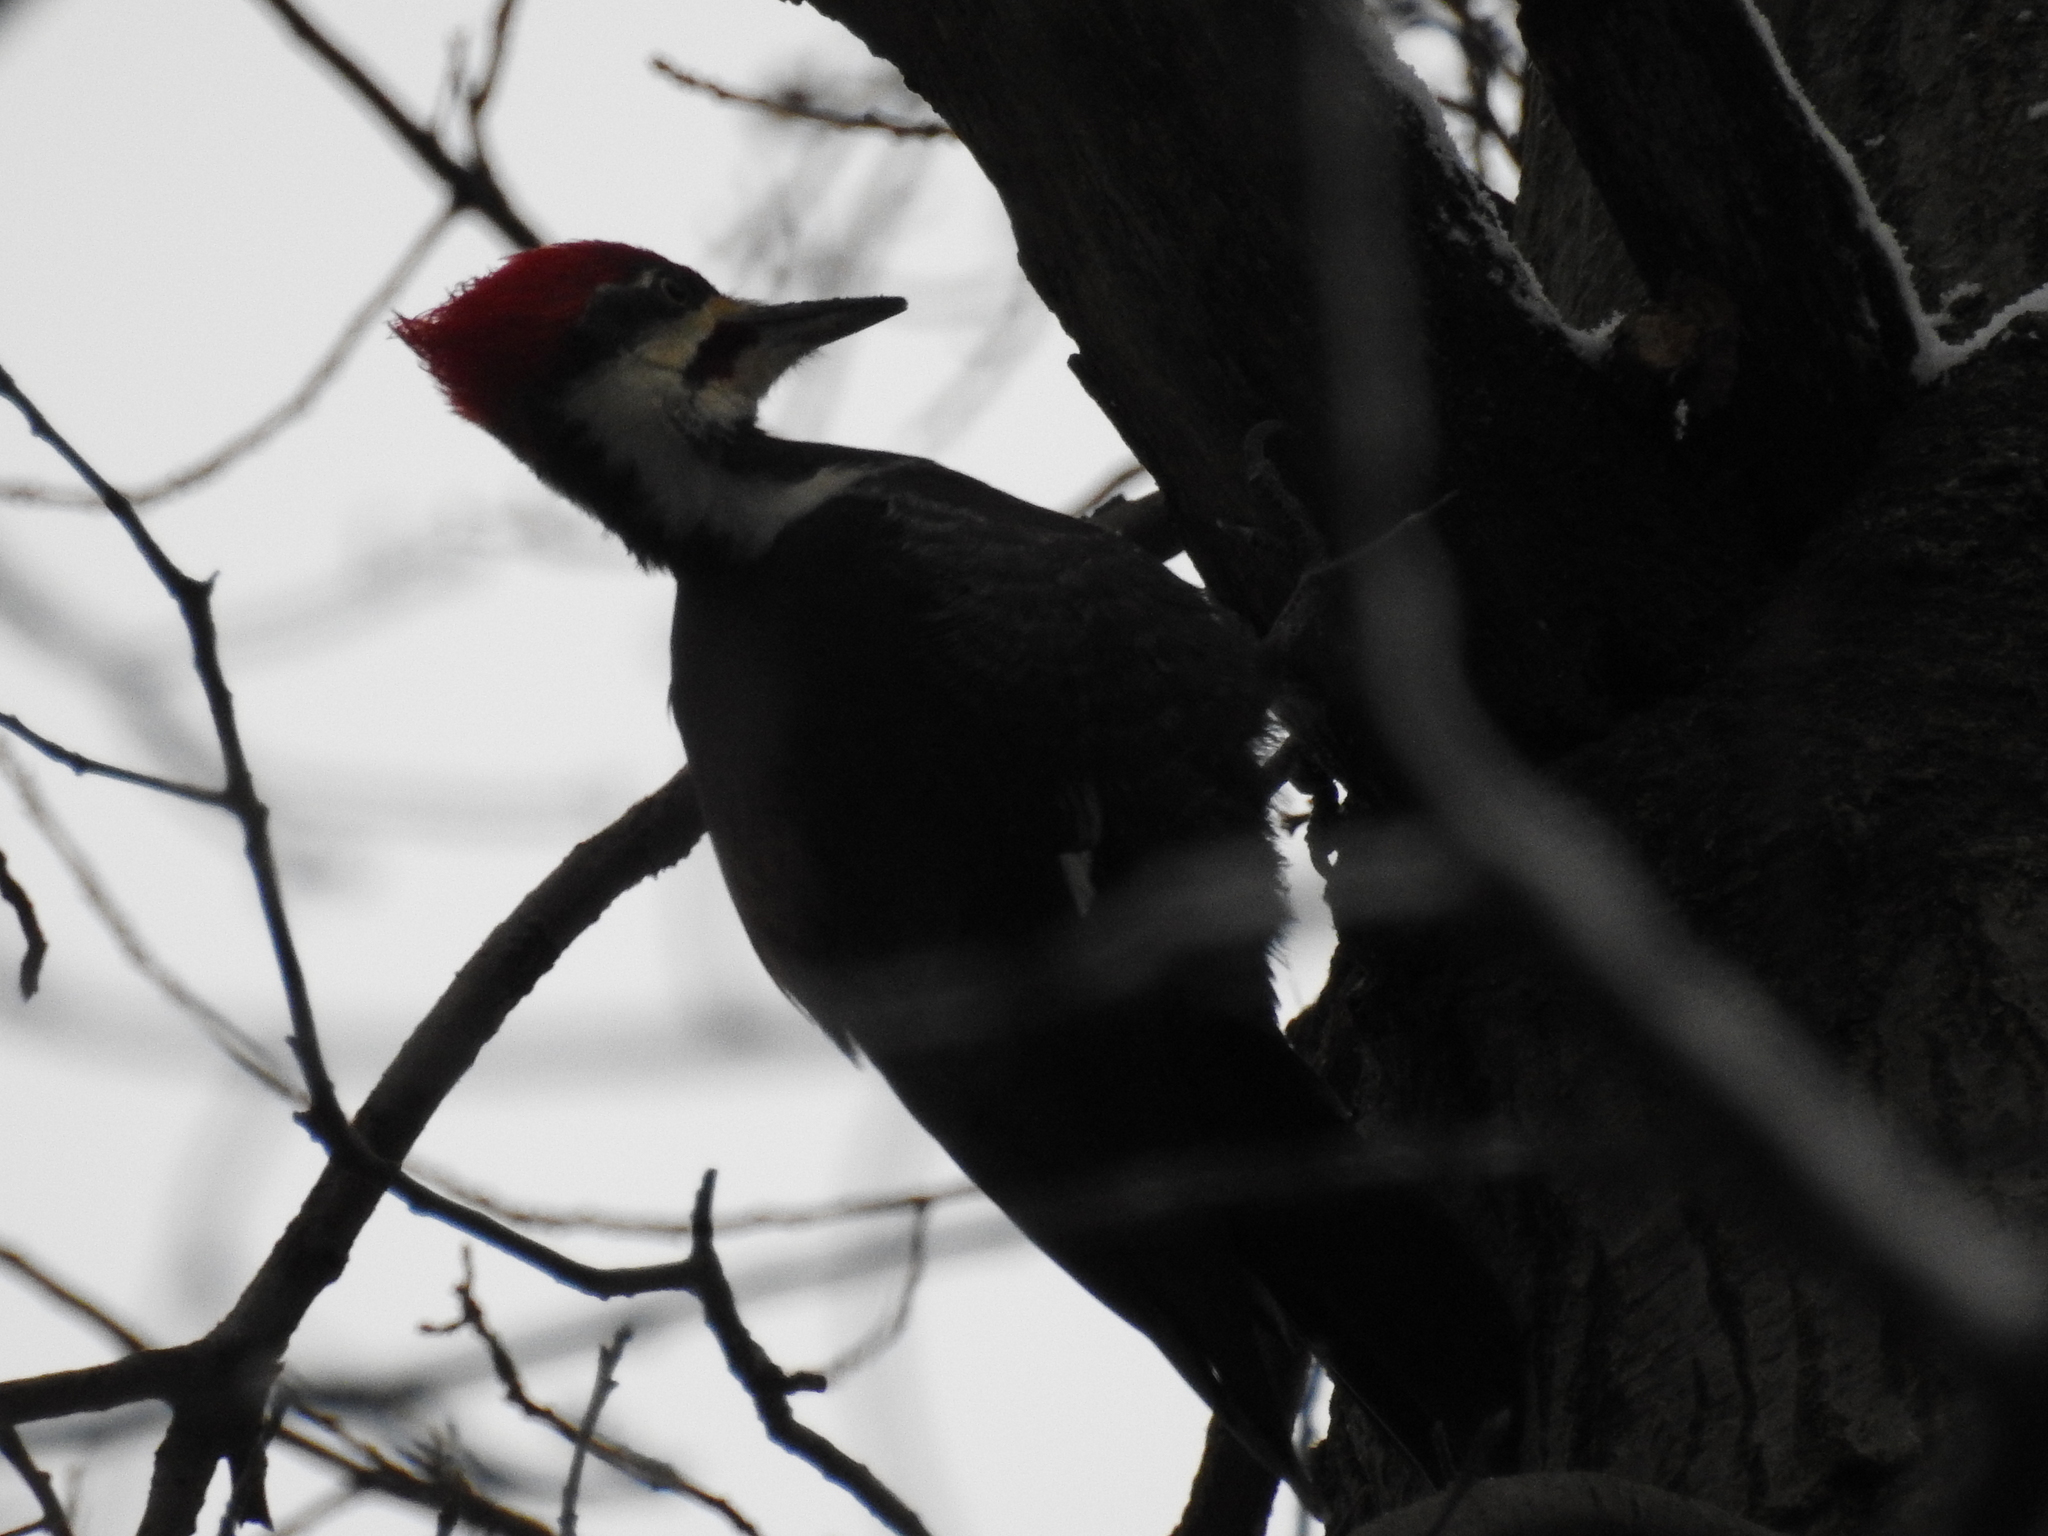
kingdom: Animalia
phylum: Chordata
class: Aves
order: Piciformes
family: Picidae
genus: Dryocopus
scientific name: Dryocopus pileatus
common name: Pileated woodpecker
